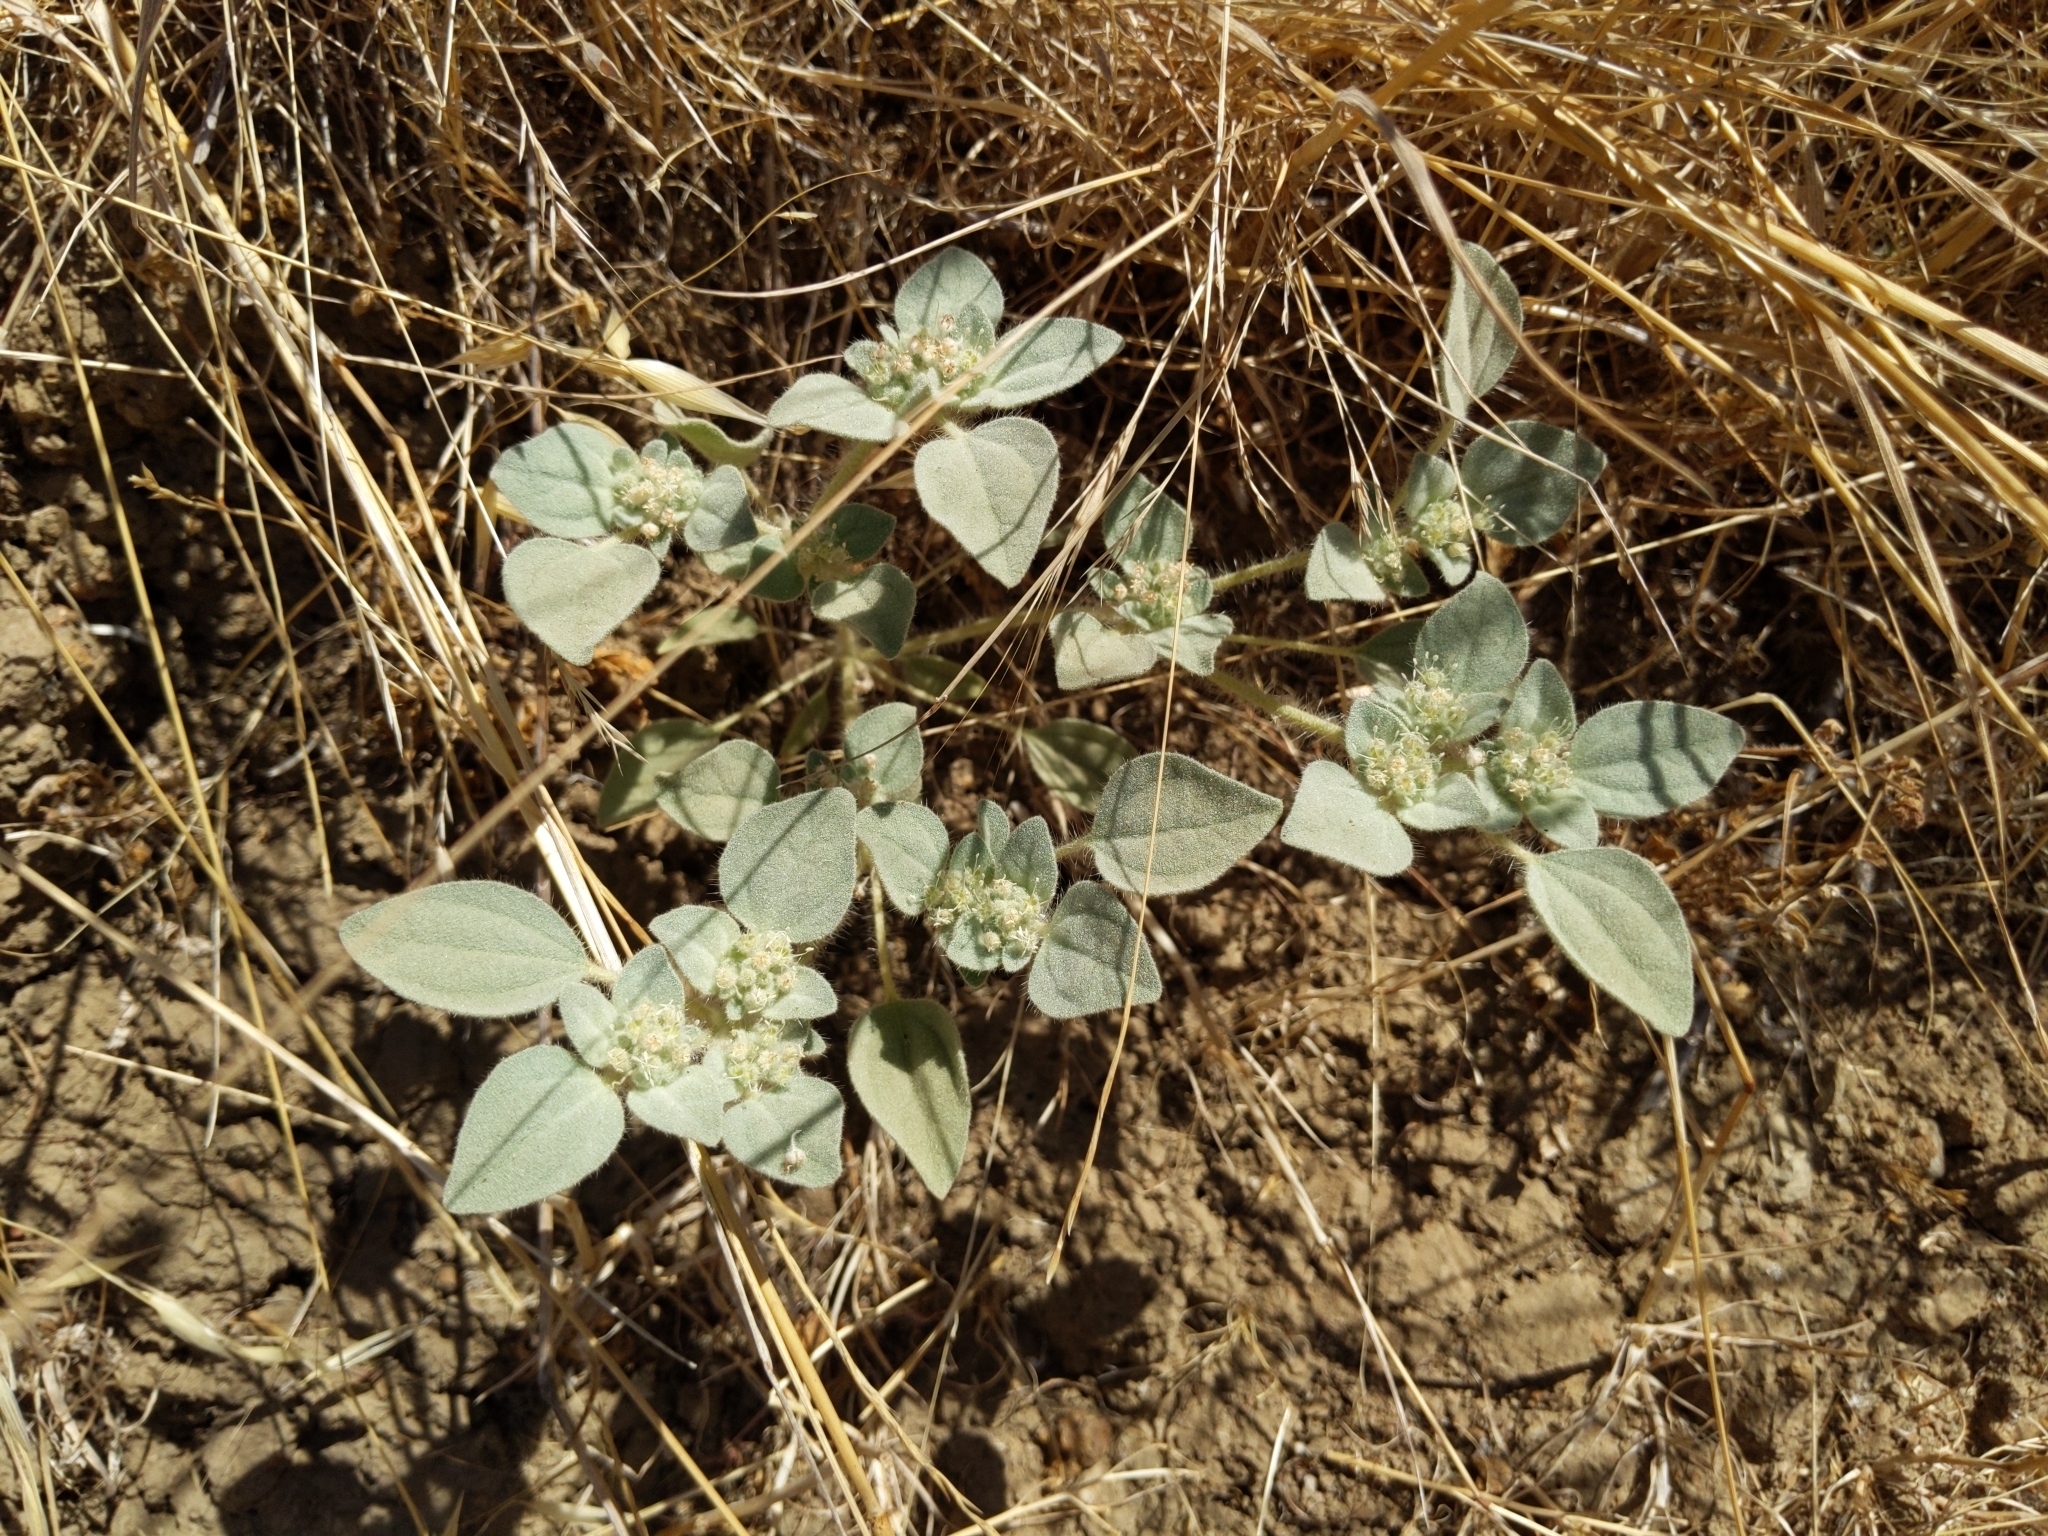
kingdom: Plantae
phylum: Tracheophyta
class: Magnoliopsida
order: Malpighiales
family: Euphorbiaceae
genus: Croton
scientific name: Croton setiger
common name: Dove weed
